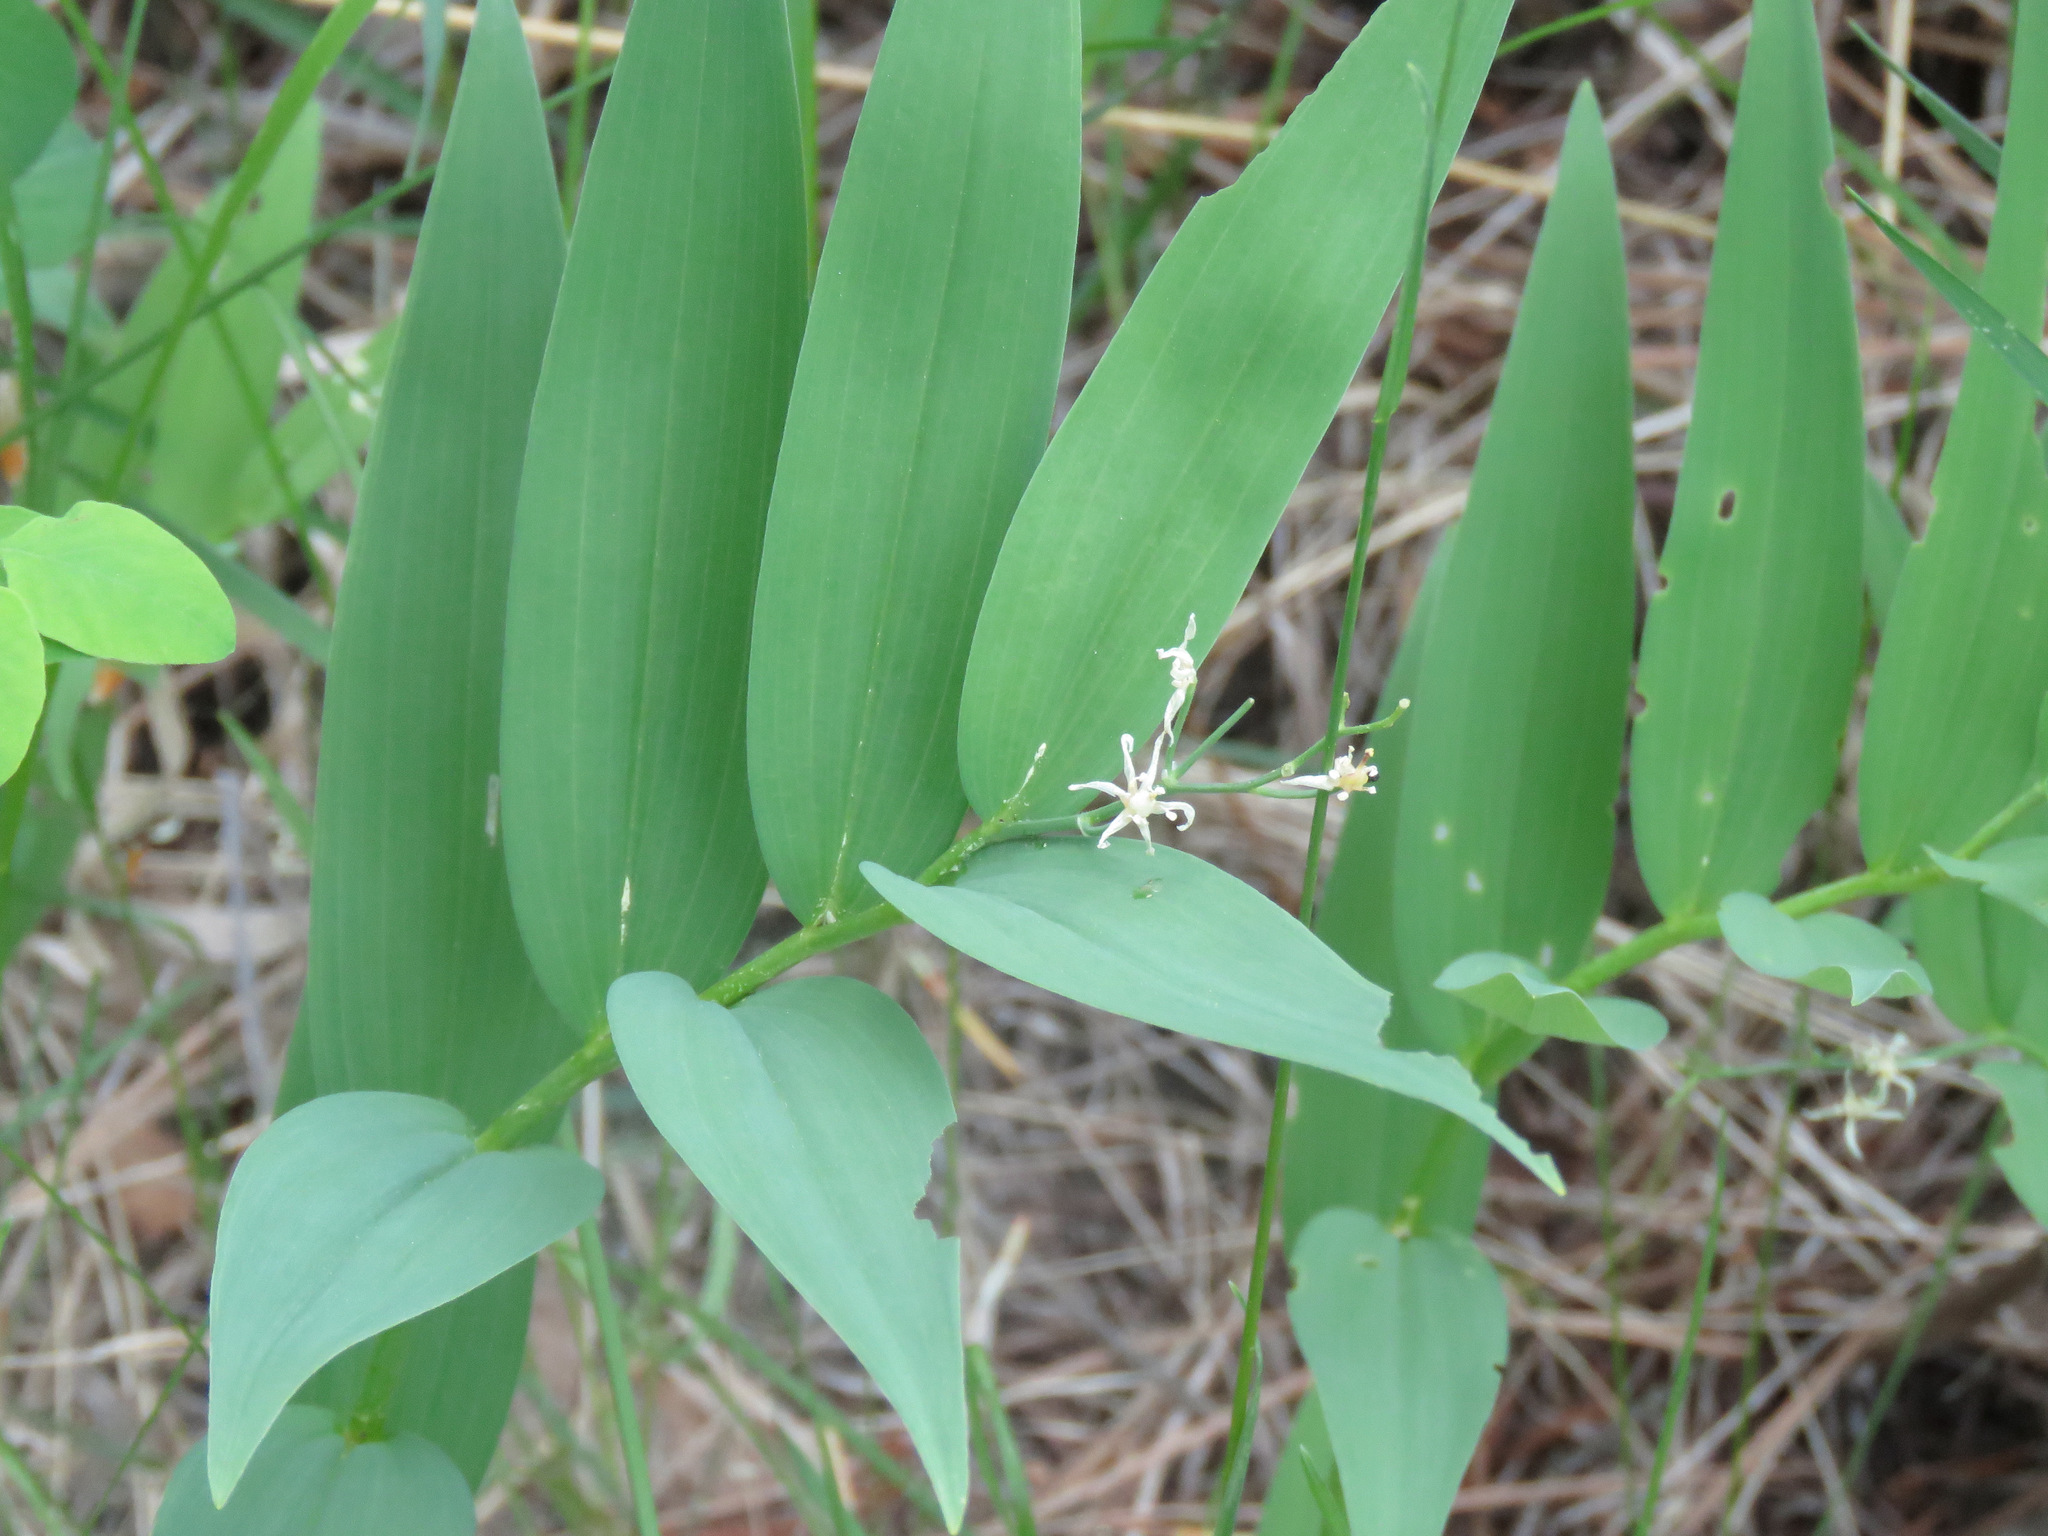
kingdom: Plantae
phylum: Tracheophyta
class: Liliopsida
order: Asparagales
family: Asparagaceae
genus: Maianthemum
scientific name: Maianthemum stellatum
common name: Little false solomon's seal
